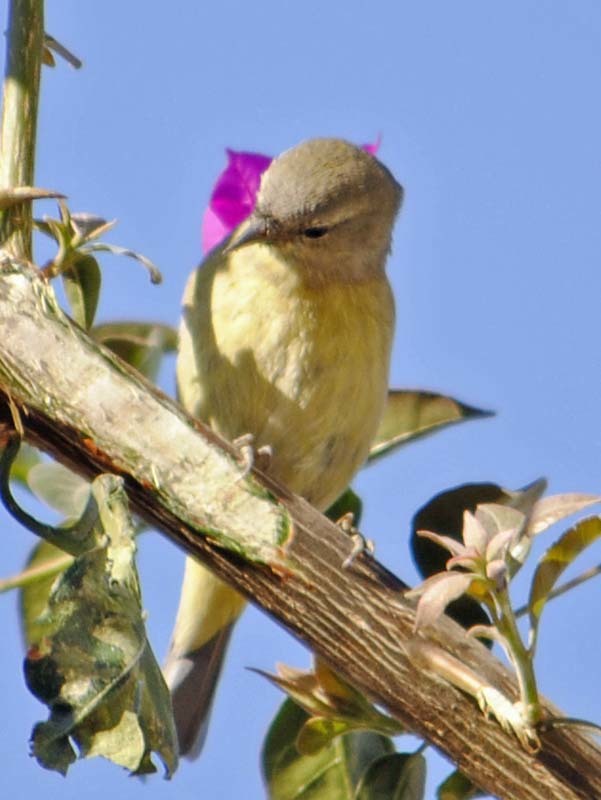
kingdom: Animalia
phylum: Chordata
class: Aves
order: Passeriformes
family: Parulidae
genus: Leiothlypis
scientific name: Leiothlypis celata
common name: Orange-crowned warbler
